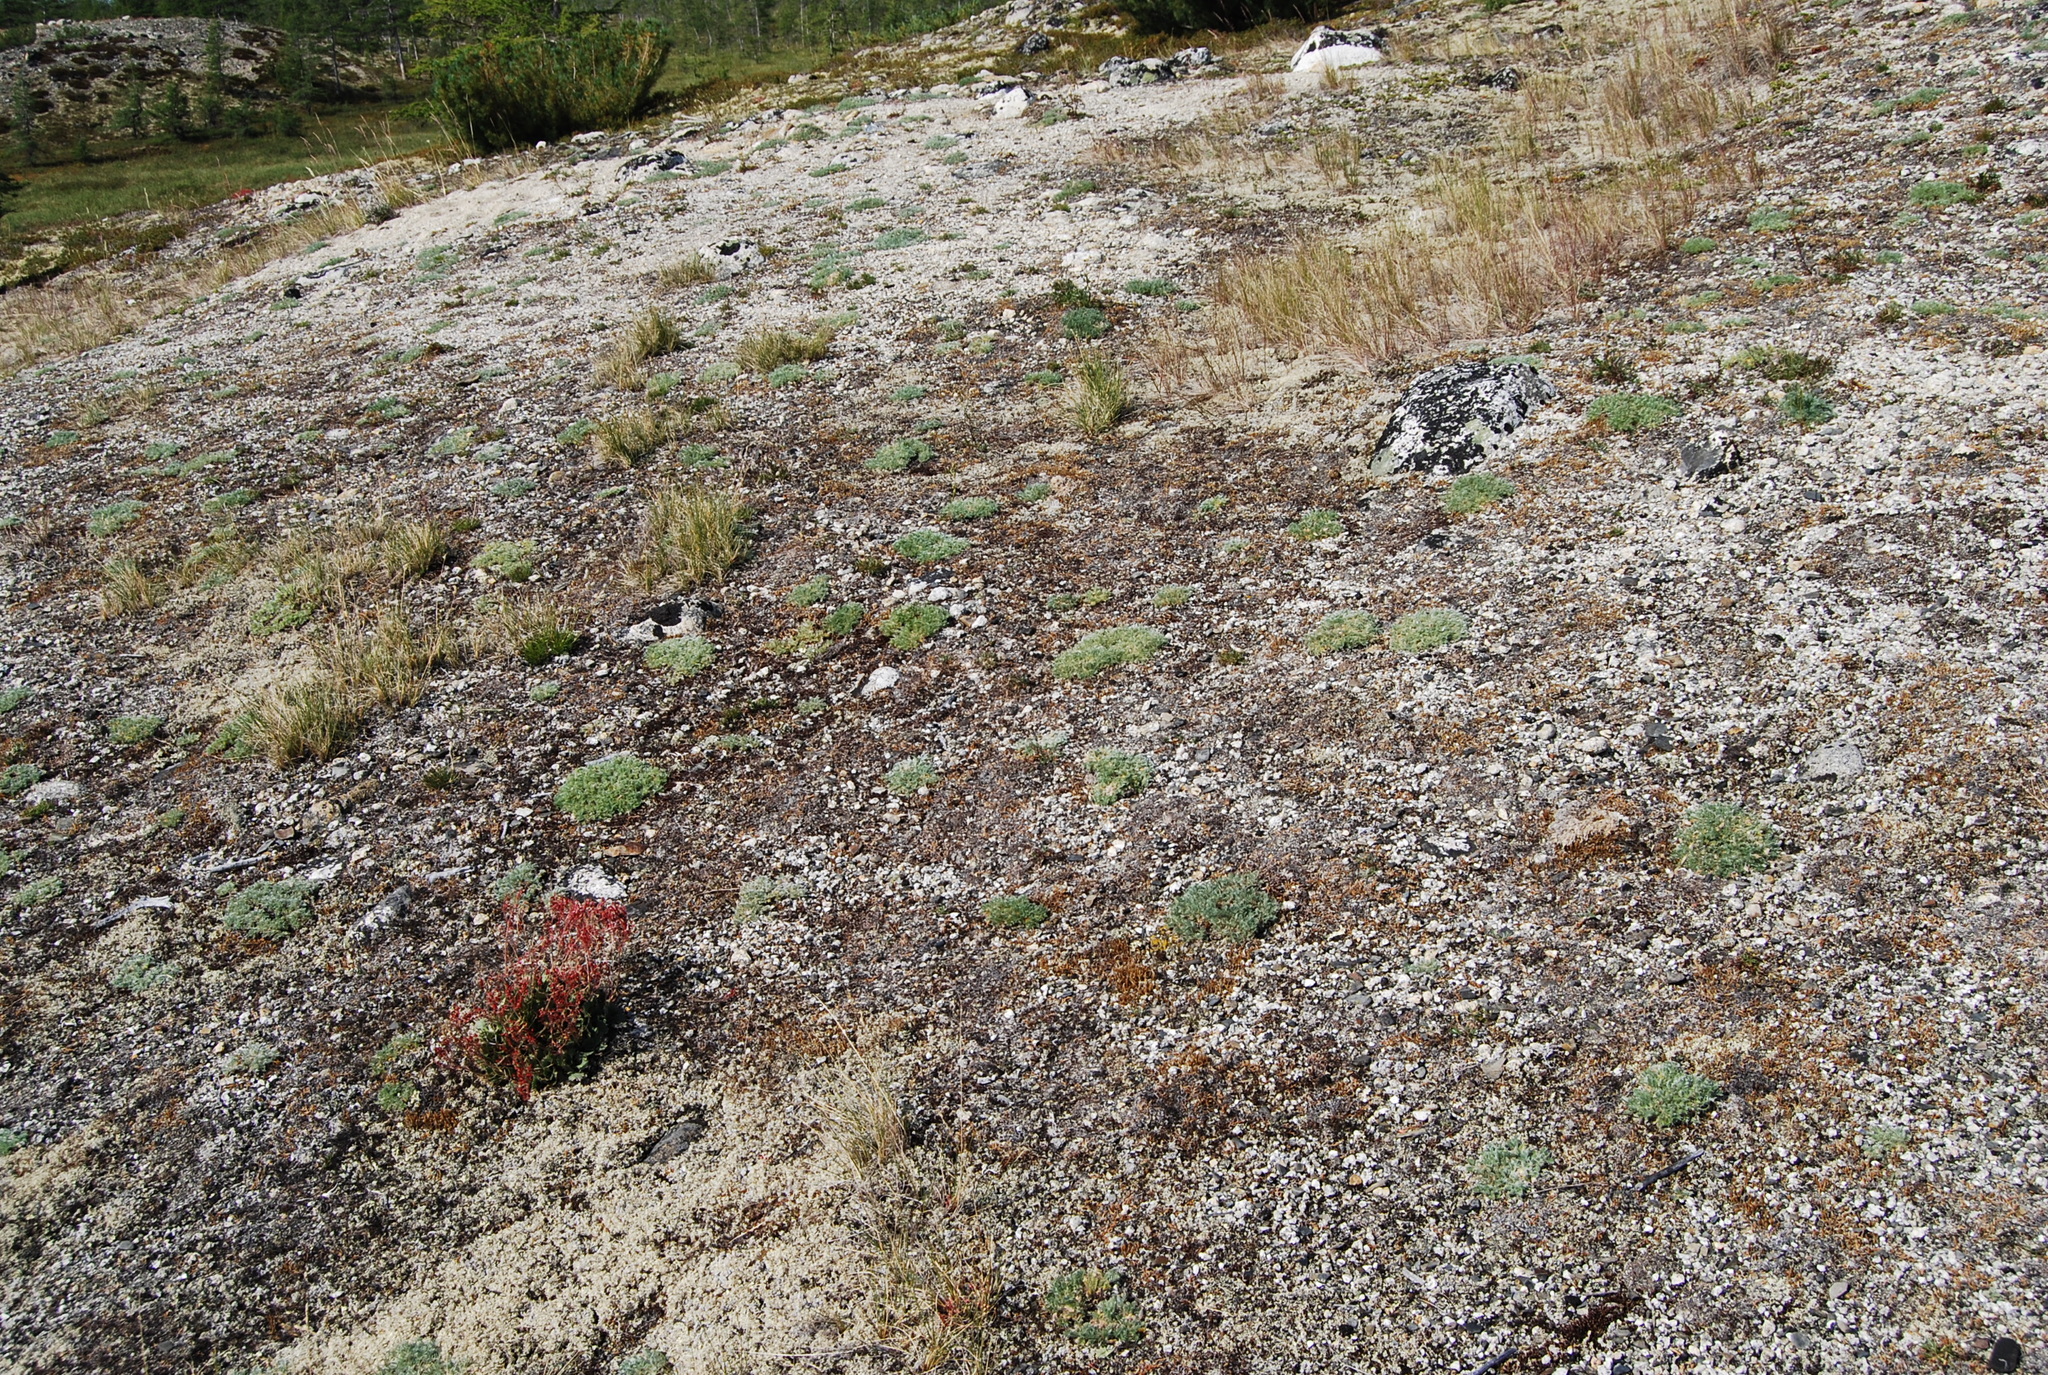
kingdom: Plantae
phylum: Tracheophyta
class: Magnoliopsida
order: Fabales
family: Fabaceae
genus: Oxytropis
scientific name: Oxytropis susumanica
